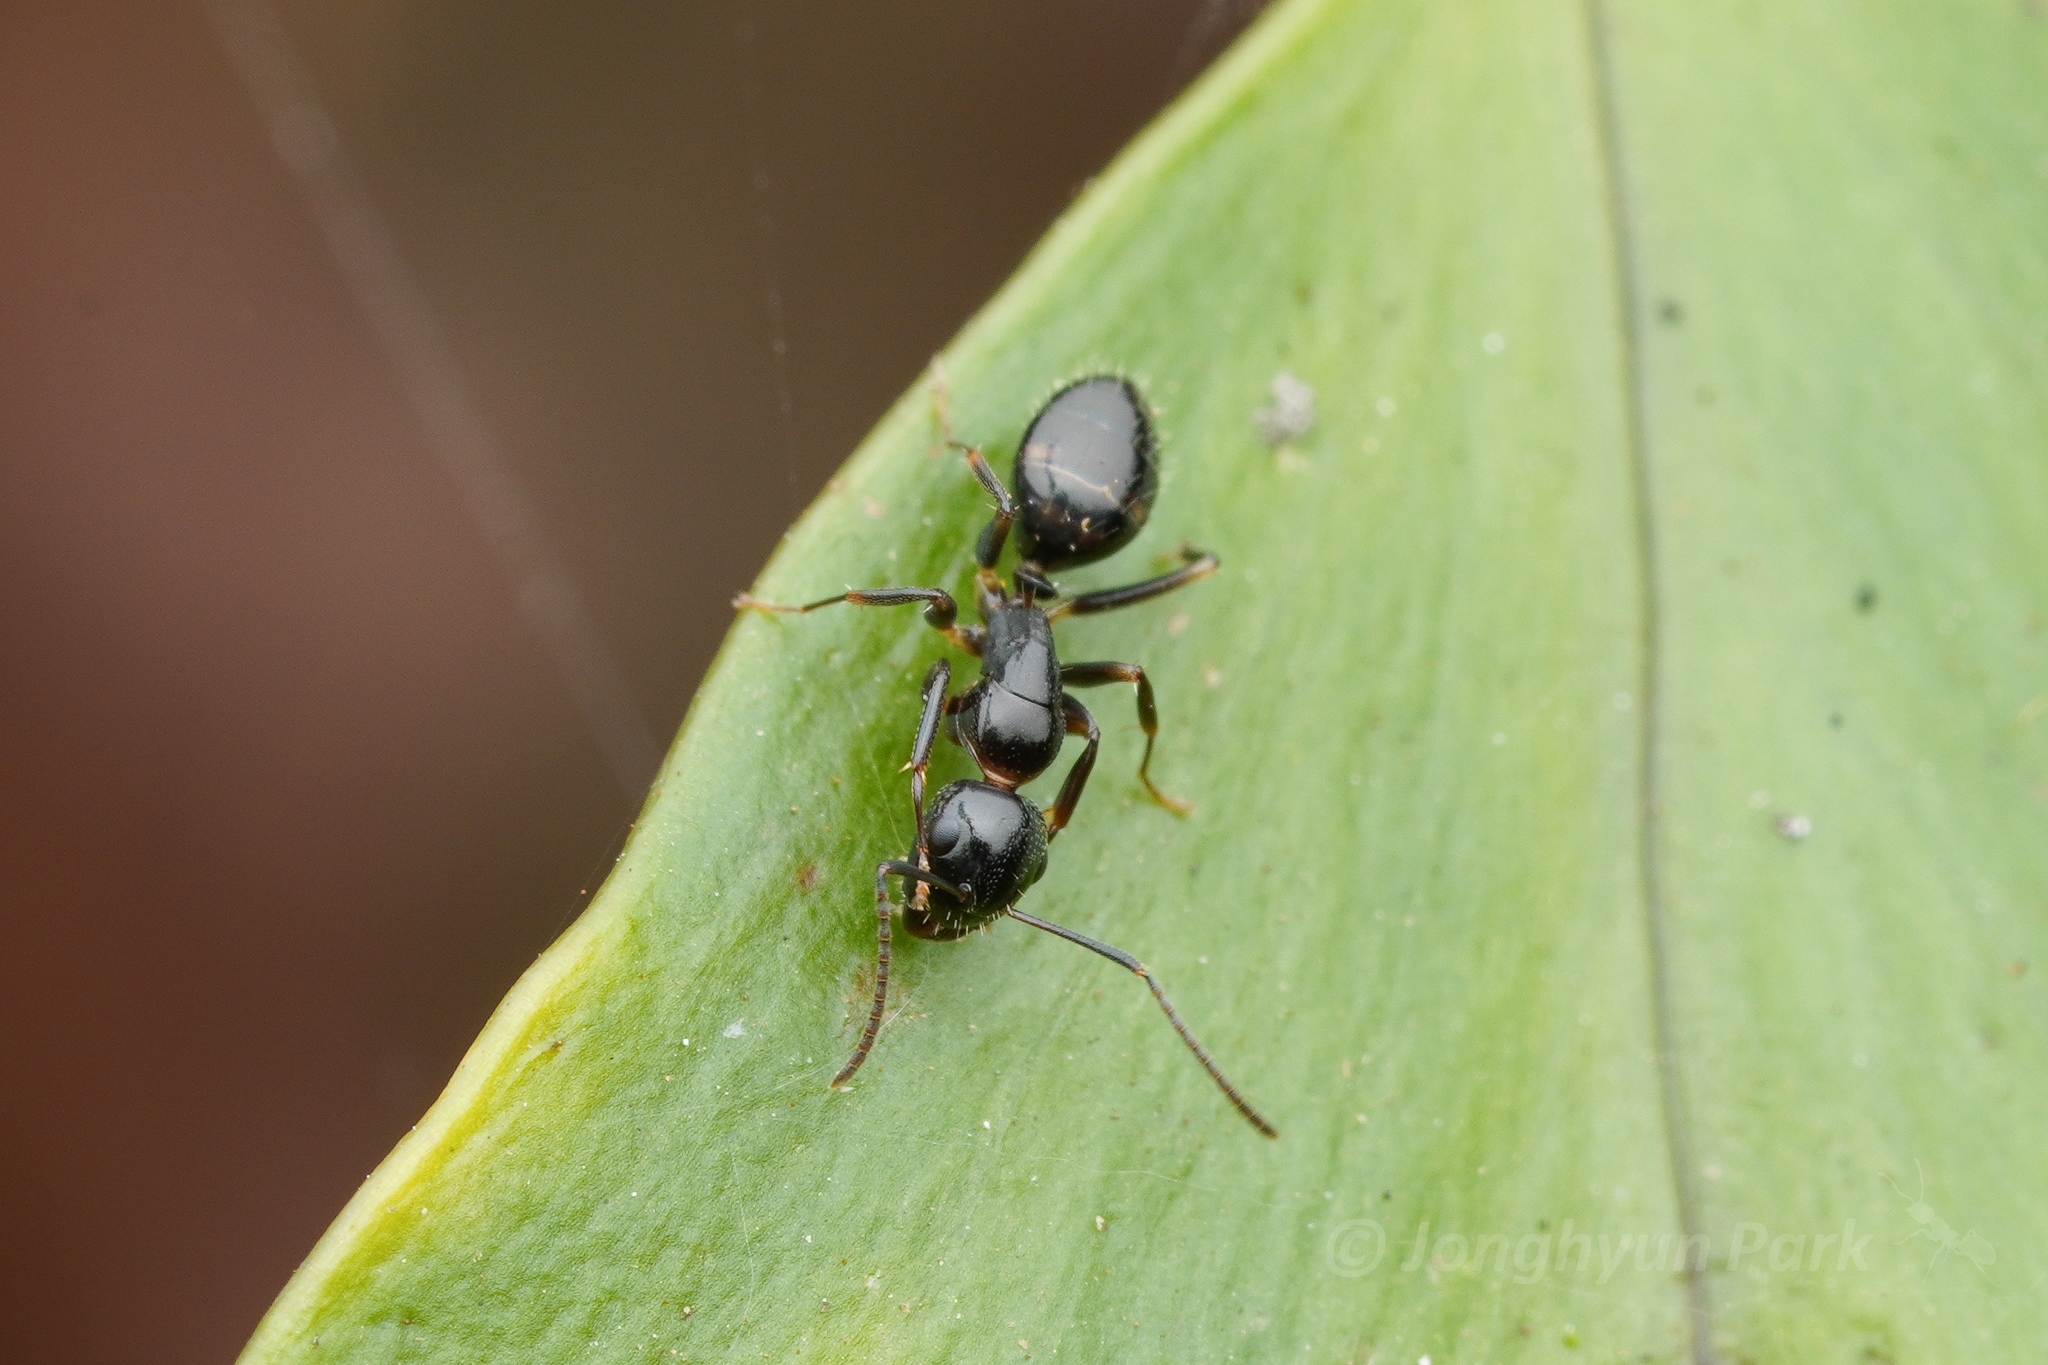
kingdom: Animalia
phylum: Arthropoda
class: Insecta
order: Hymenoptera
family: Formicidae
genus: Camponotus
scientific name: Camponotus
